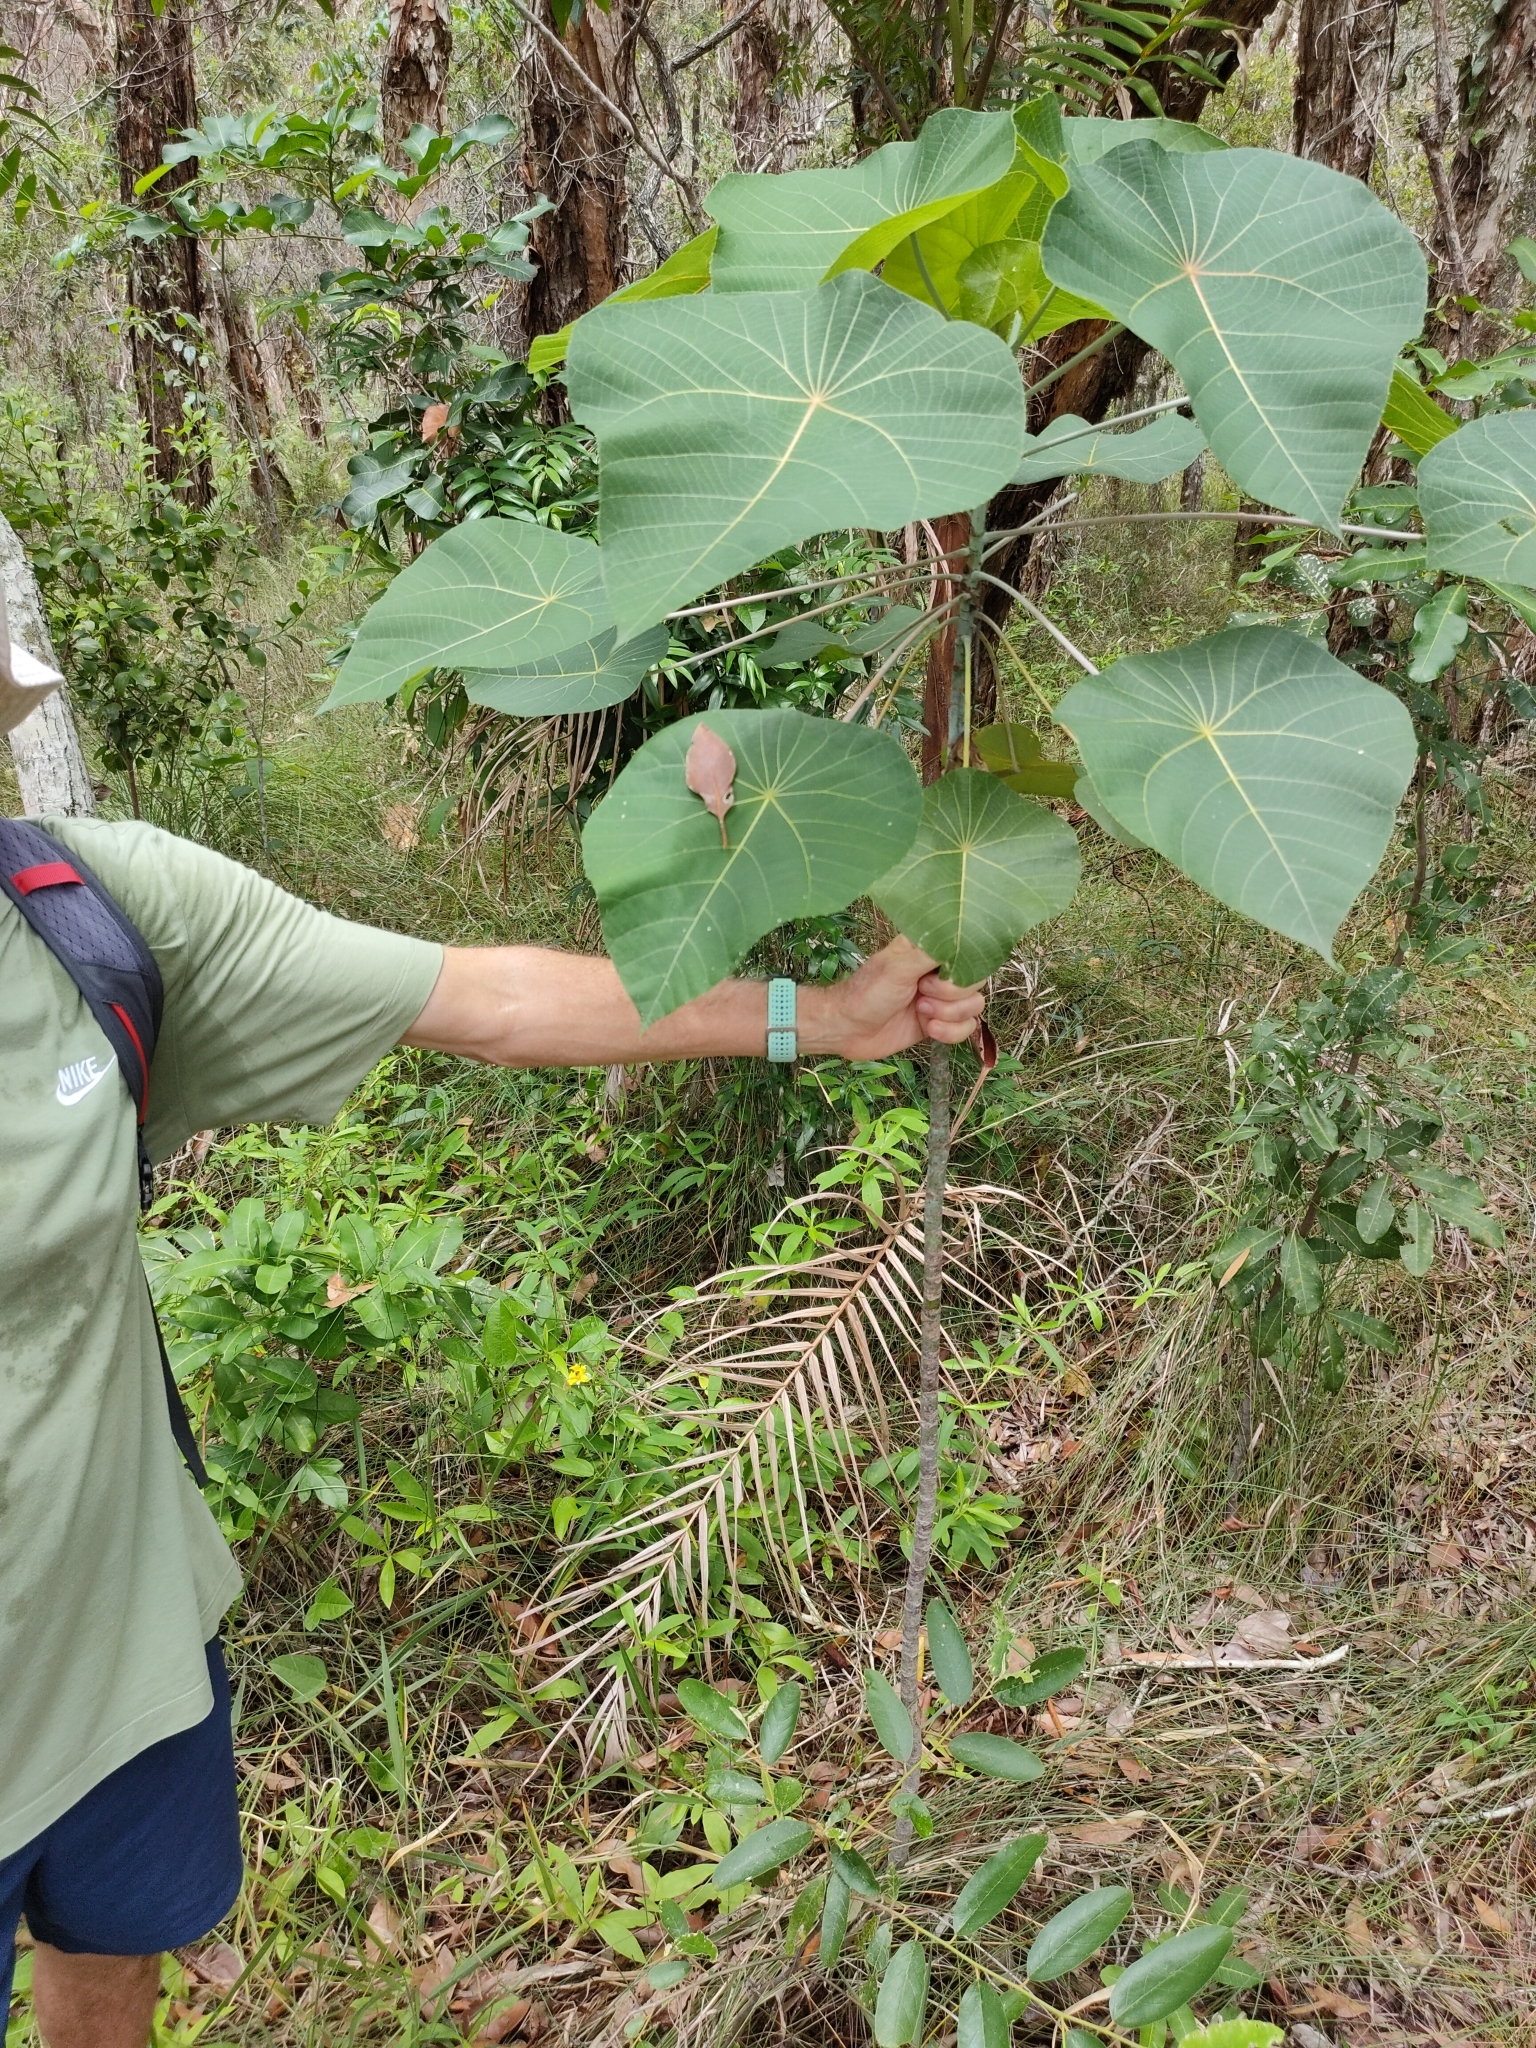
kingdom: Plantae
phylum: Tracheophyta
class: Magnoliopsida
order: Malpighiales
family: Euphorbiaceae
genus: Macaranga
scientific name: Macaranga tanarius
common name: Parasol leaf tree
